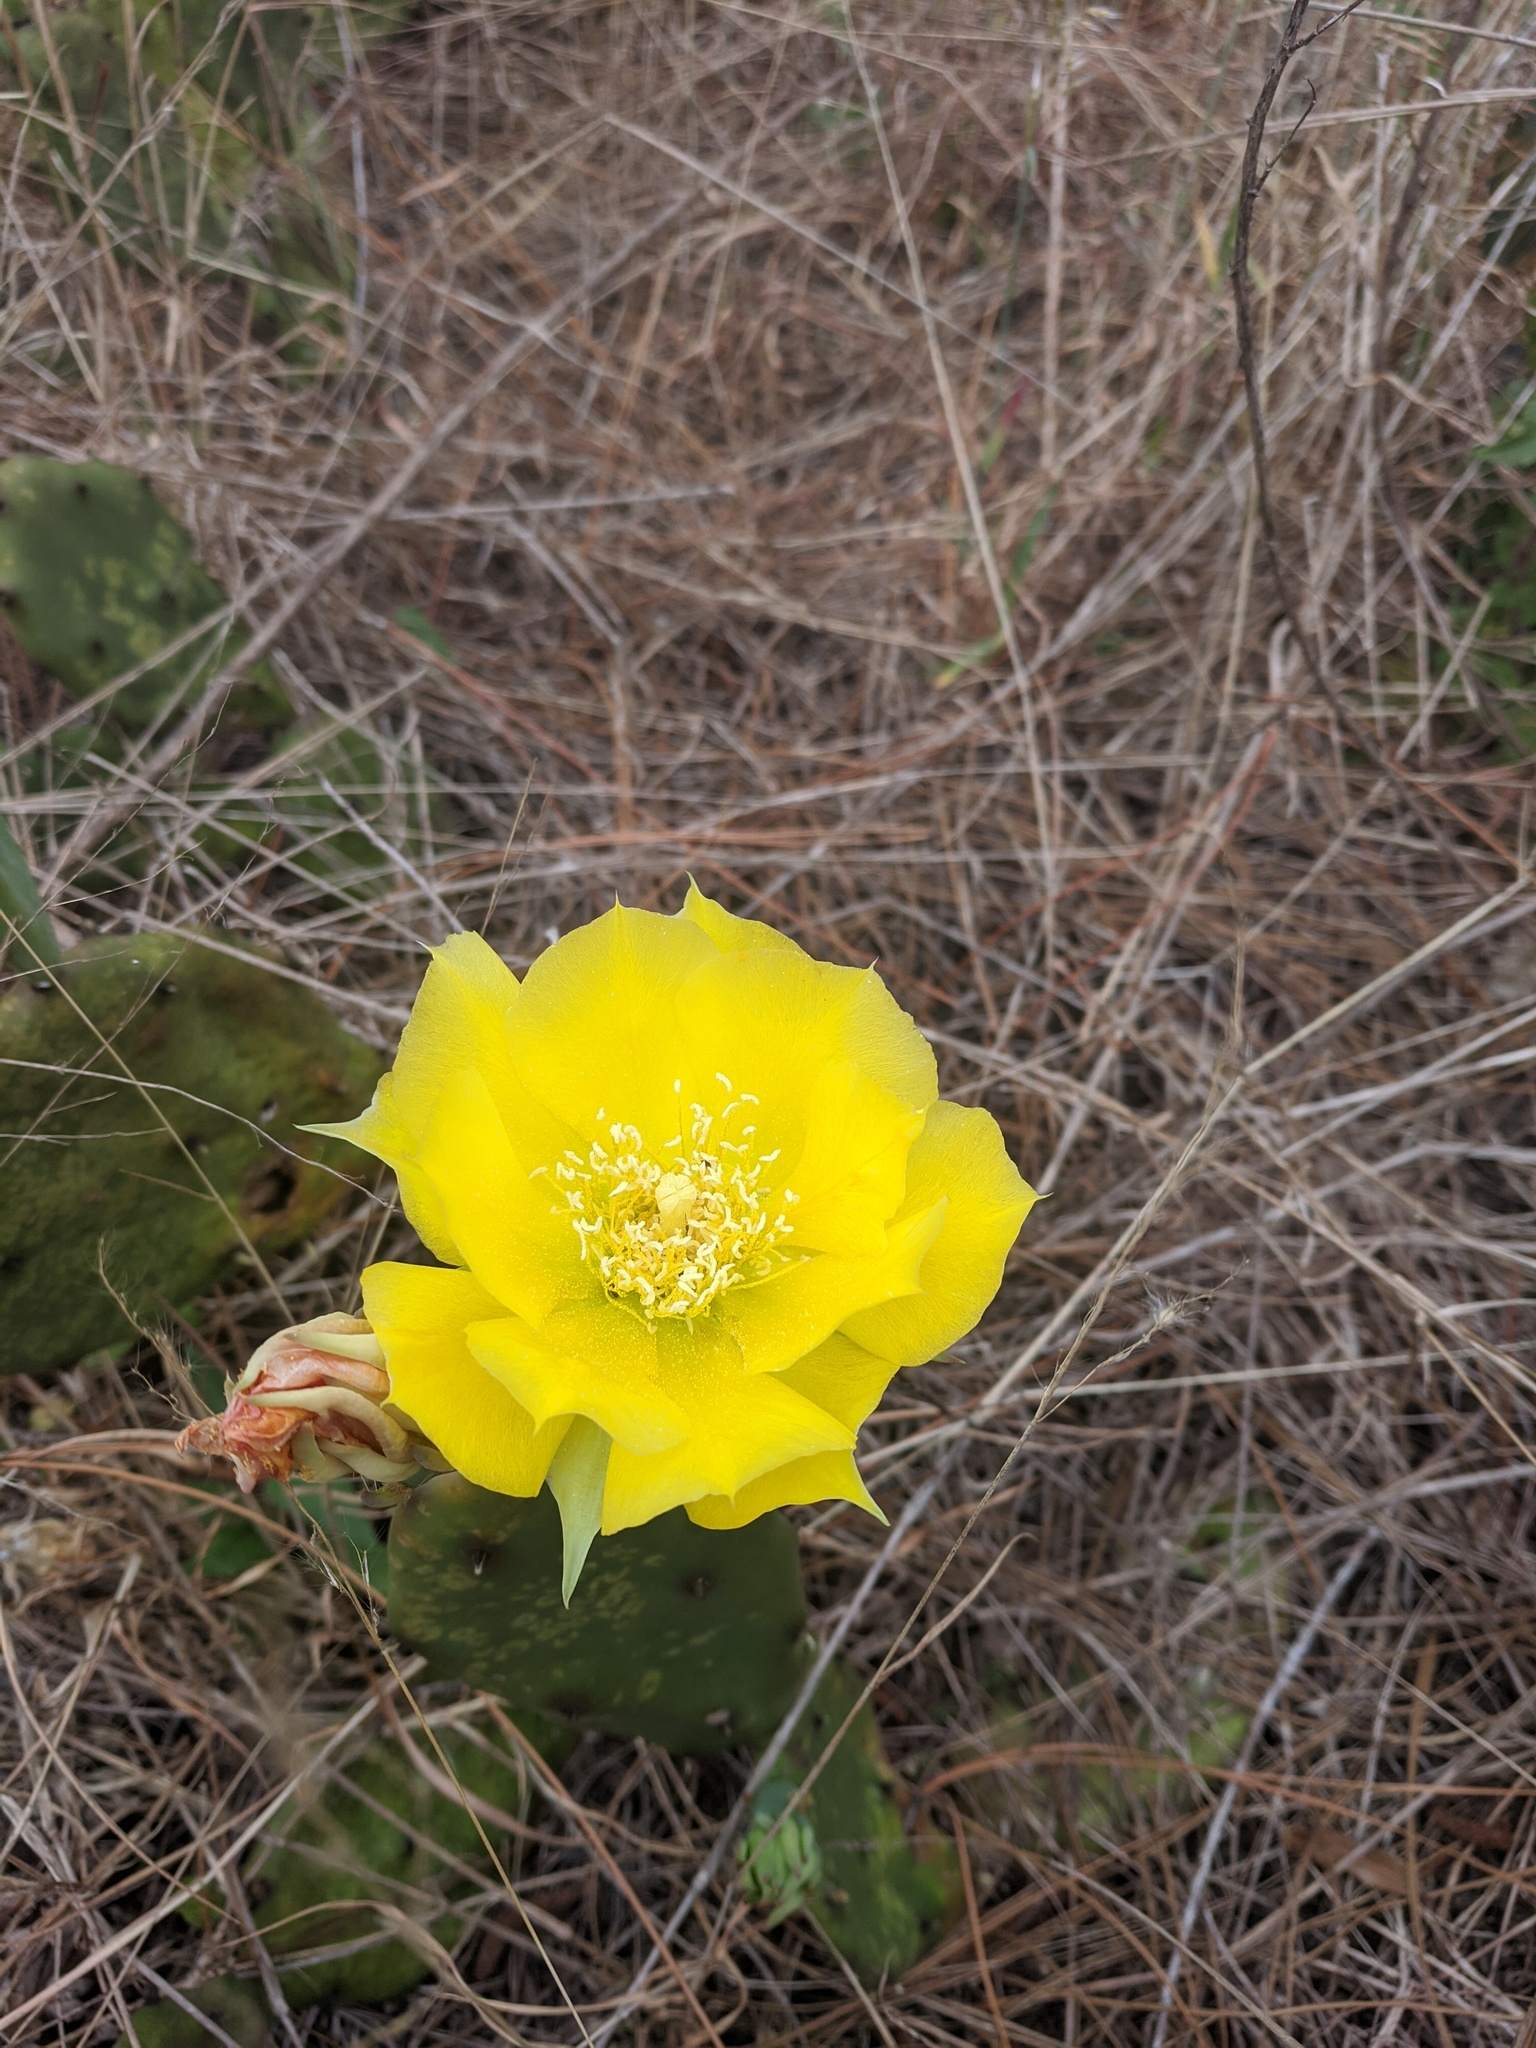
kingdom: Plantae
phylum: Tracheophyta
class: Magnoliopsida
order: Caryophyllales
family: Cactaceae
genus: Opuntia
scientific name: Opuntia austrina
